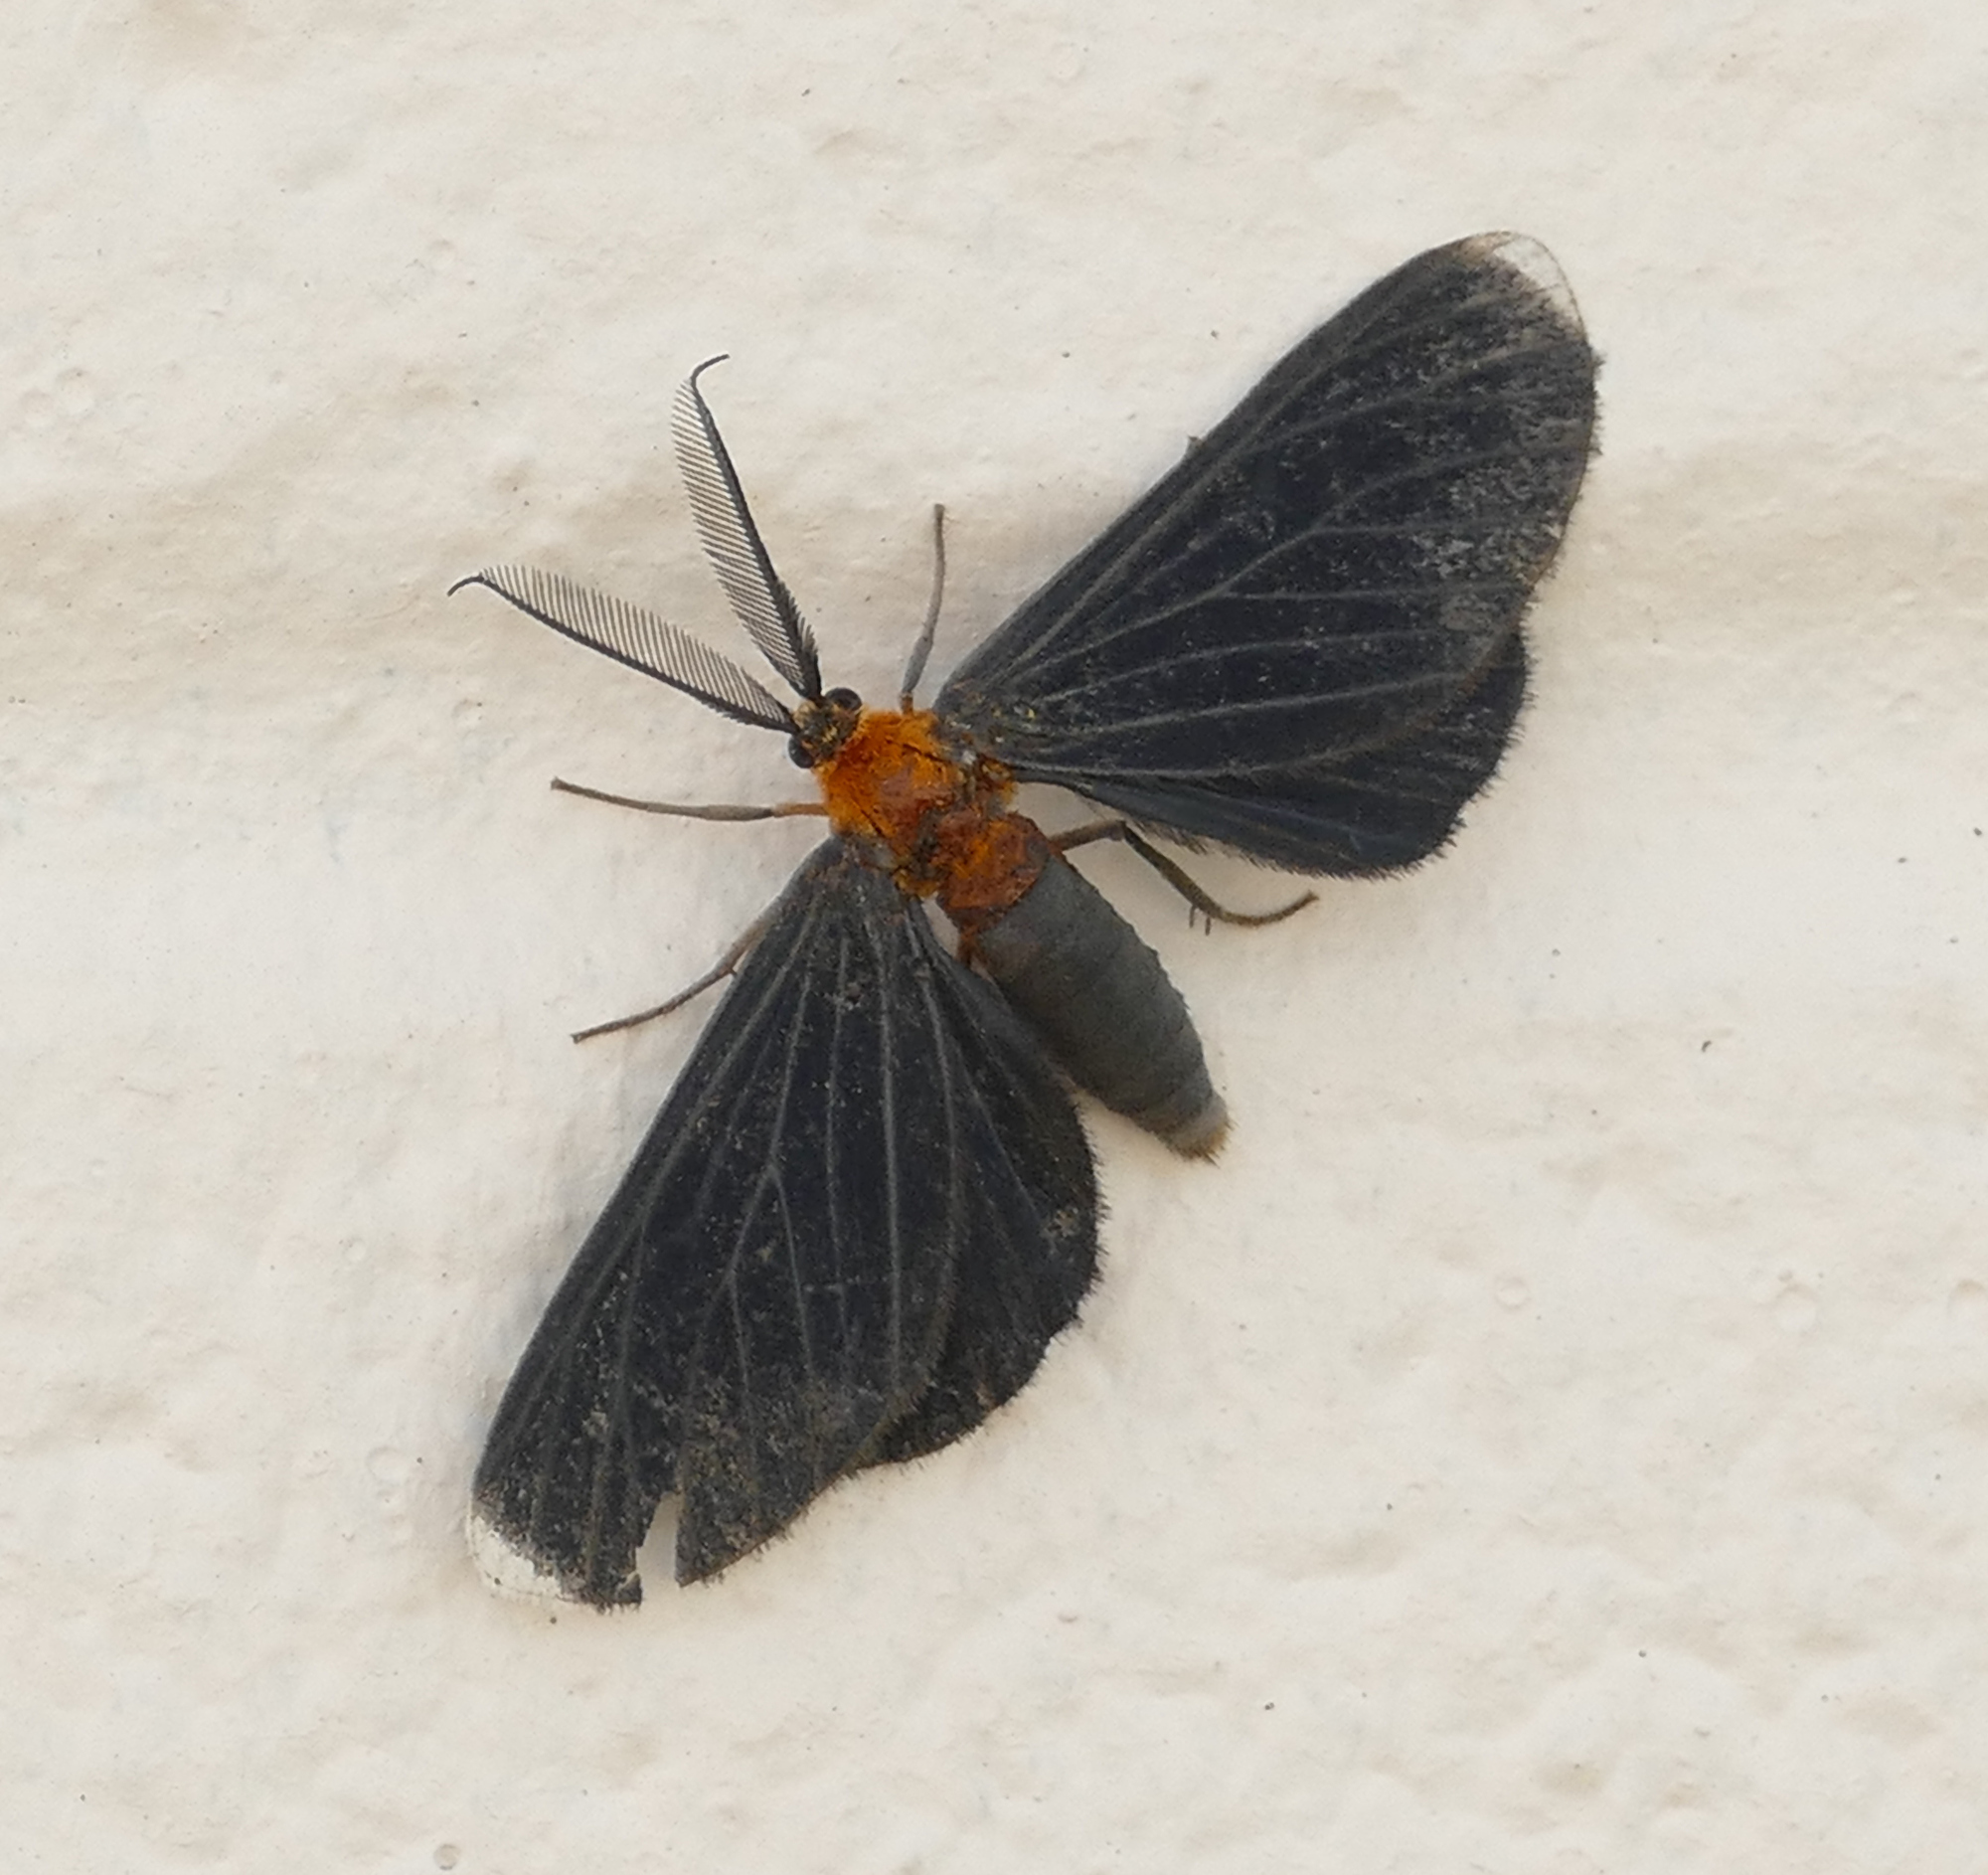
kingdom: Animalia
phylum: Arthropoda
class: Insecta
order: Lepidoptera
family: Geometridae
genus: Melanchroia
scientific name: Melanchroia chephise
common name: White-tipped black
